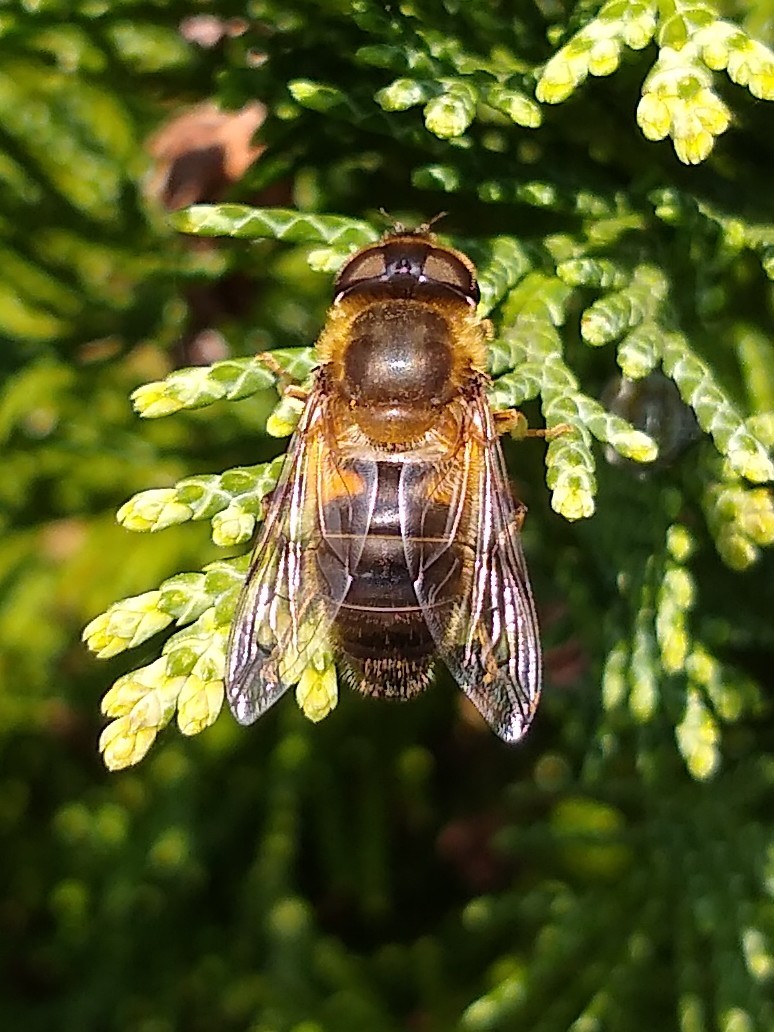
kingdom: Animalia
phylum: Arthropoda
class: Insecta
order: Diptera
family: Syrphidae
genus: Eristalis
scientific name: Eristalis pertinax
